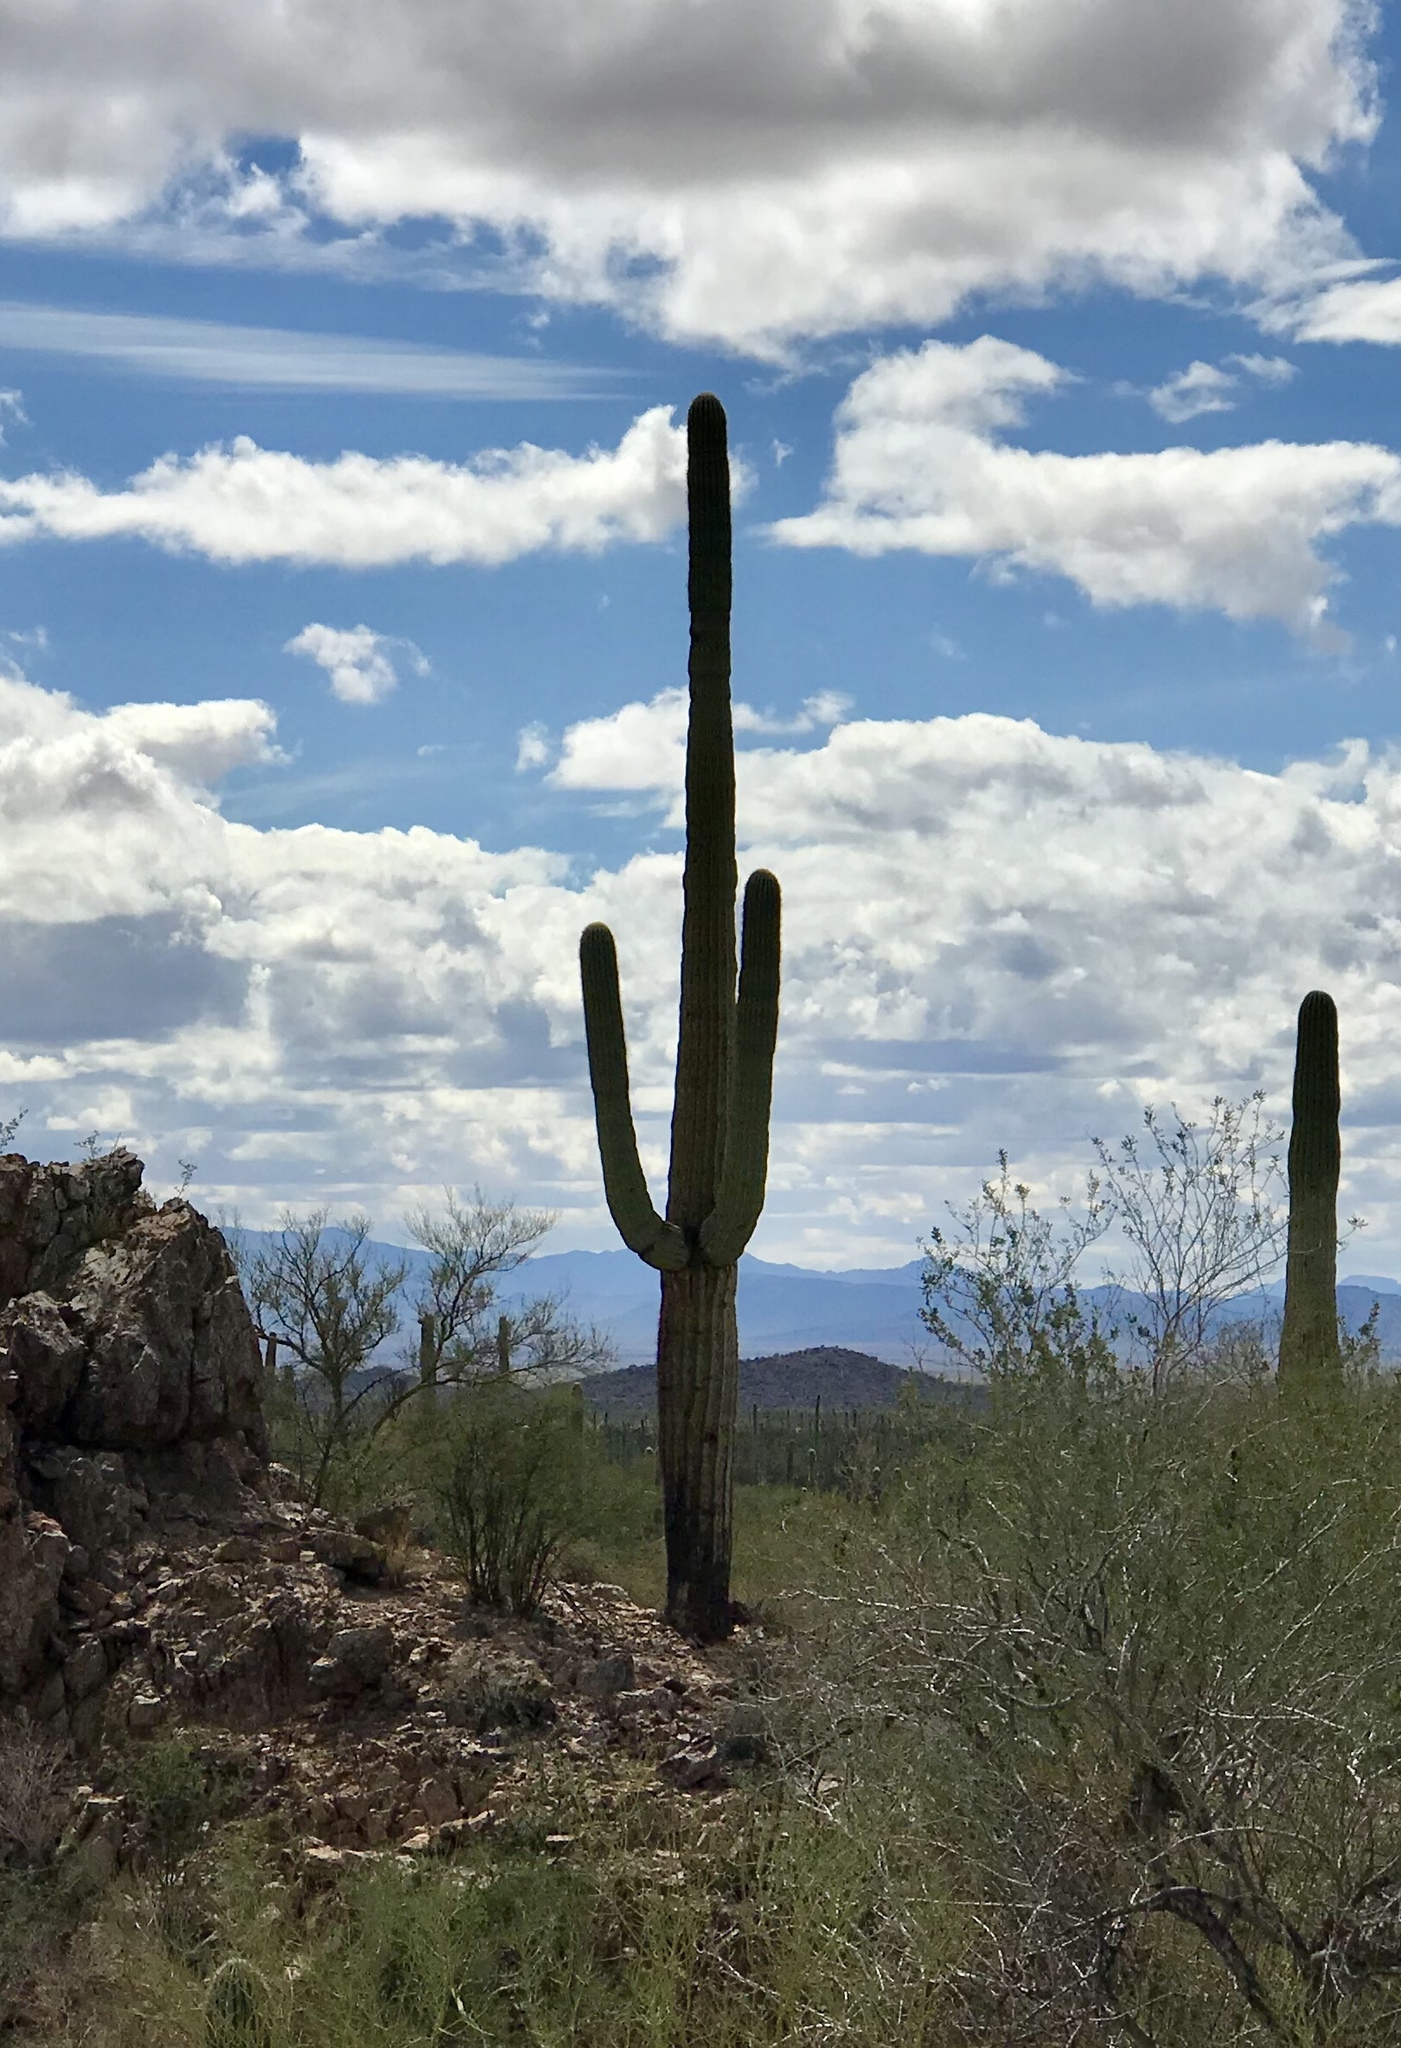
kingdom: Plantae
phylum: Tracheophyta
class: Magnoliopsida
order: Caryophyllales
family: Cactaceae
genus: Carnegiea
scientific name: Carnegiea gigantea
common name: Saguaro
